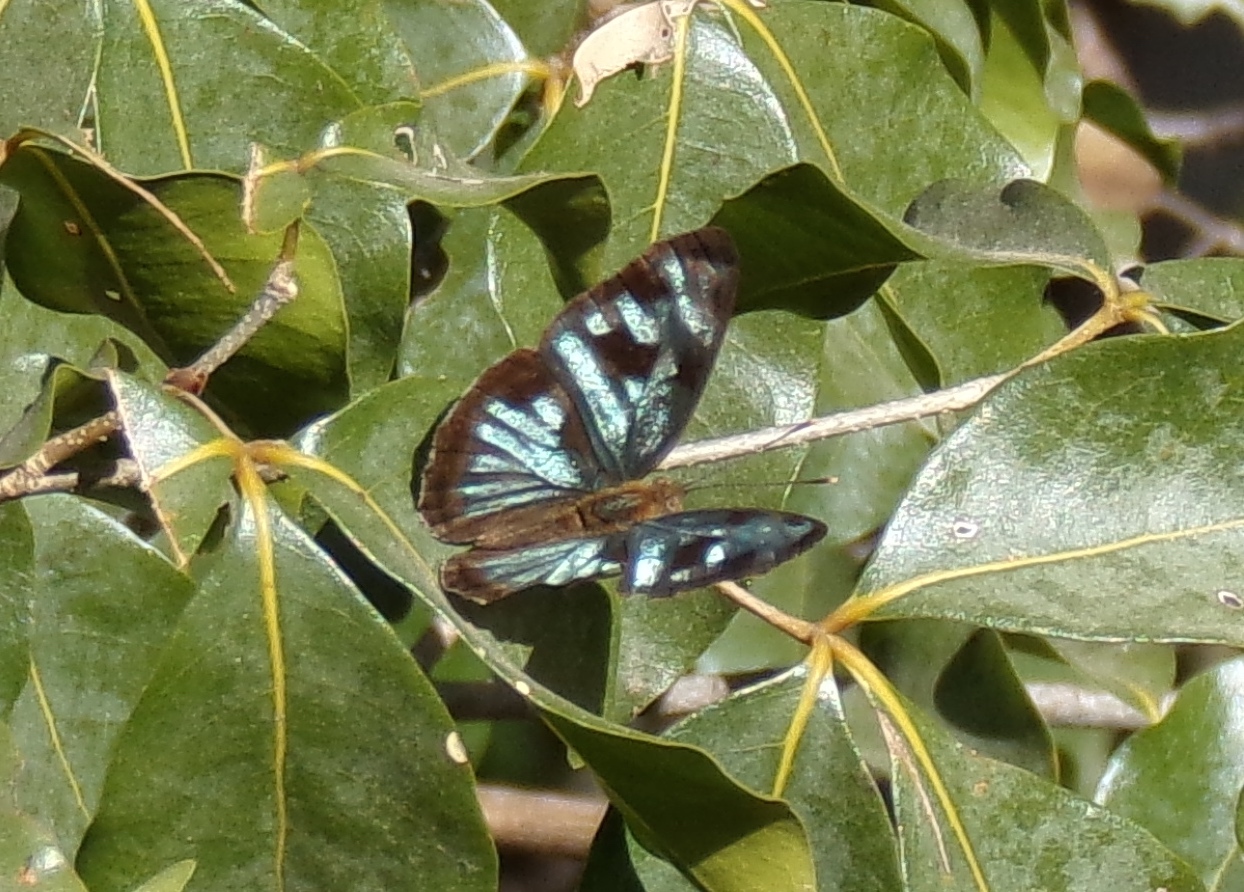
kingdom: Animalia
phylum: Arthropoda
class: Insecta
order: Lepidoptera
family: Nymphalidae
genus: Dynamine
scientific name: Dynamine mylitta
